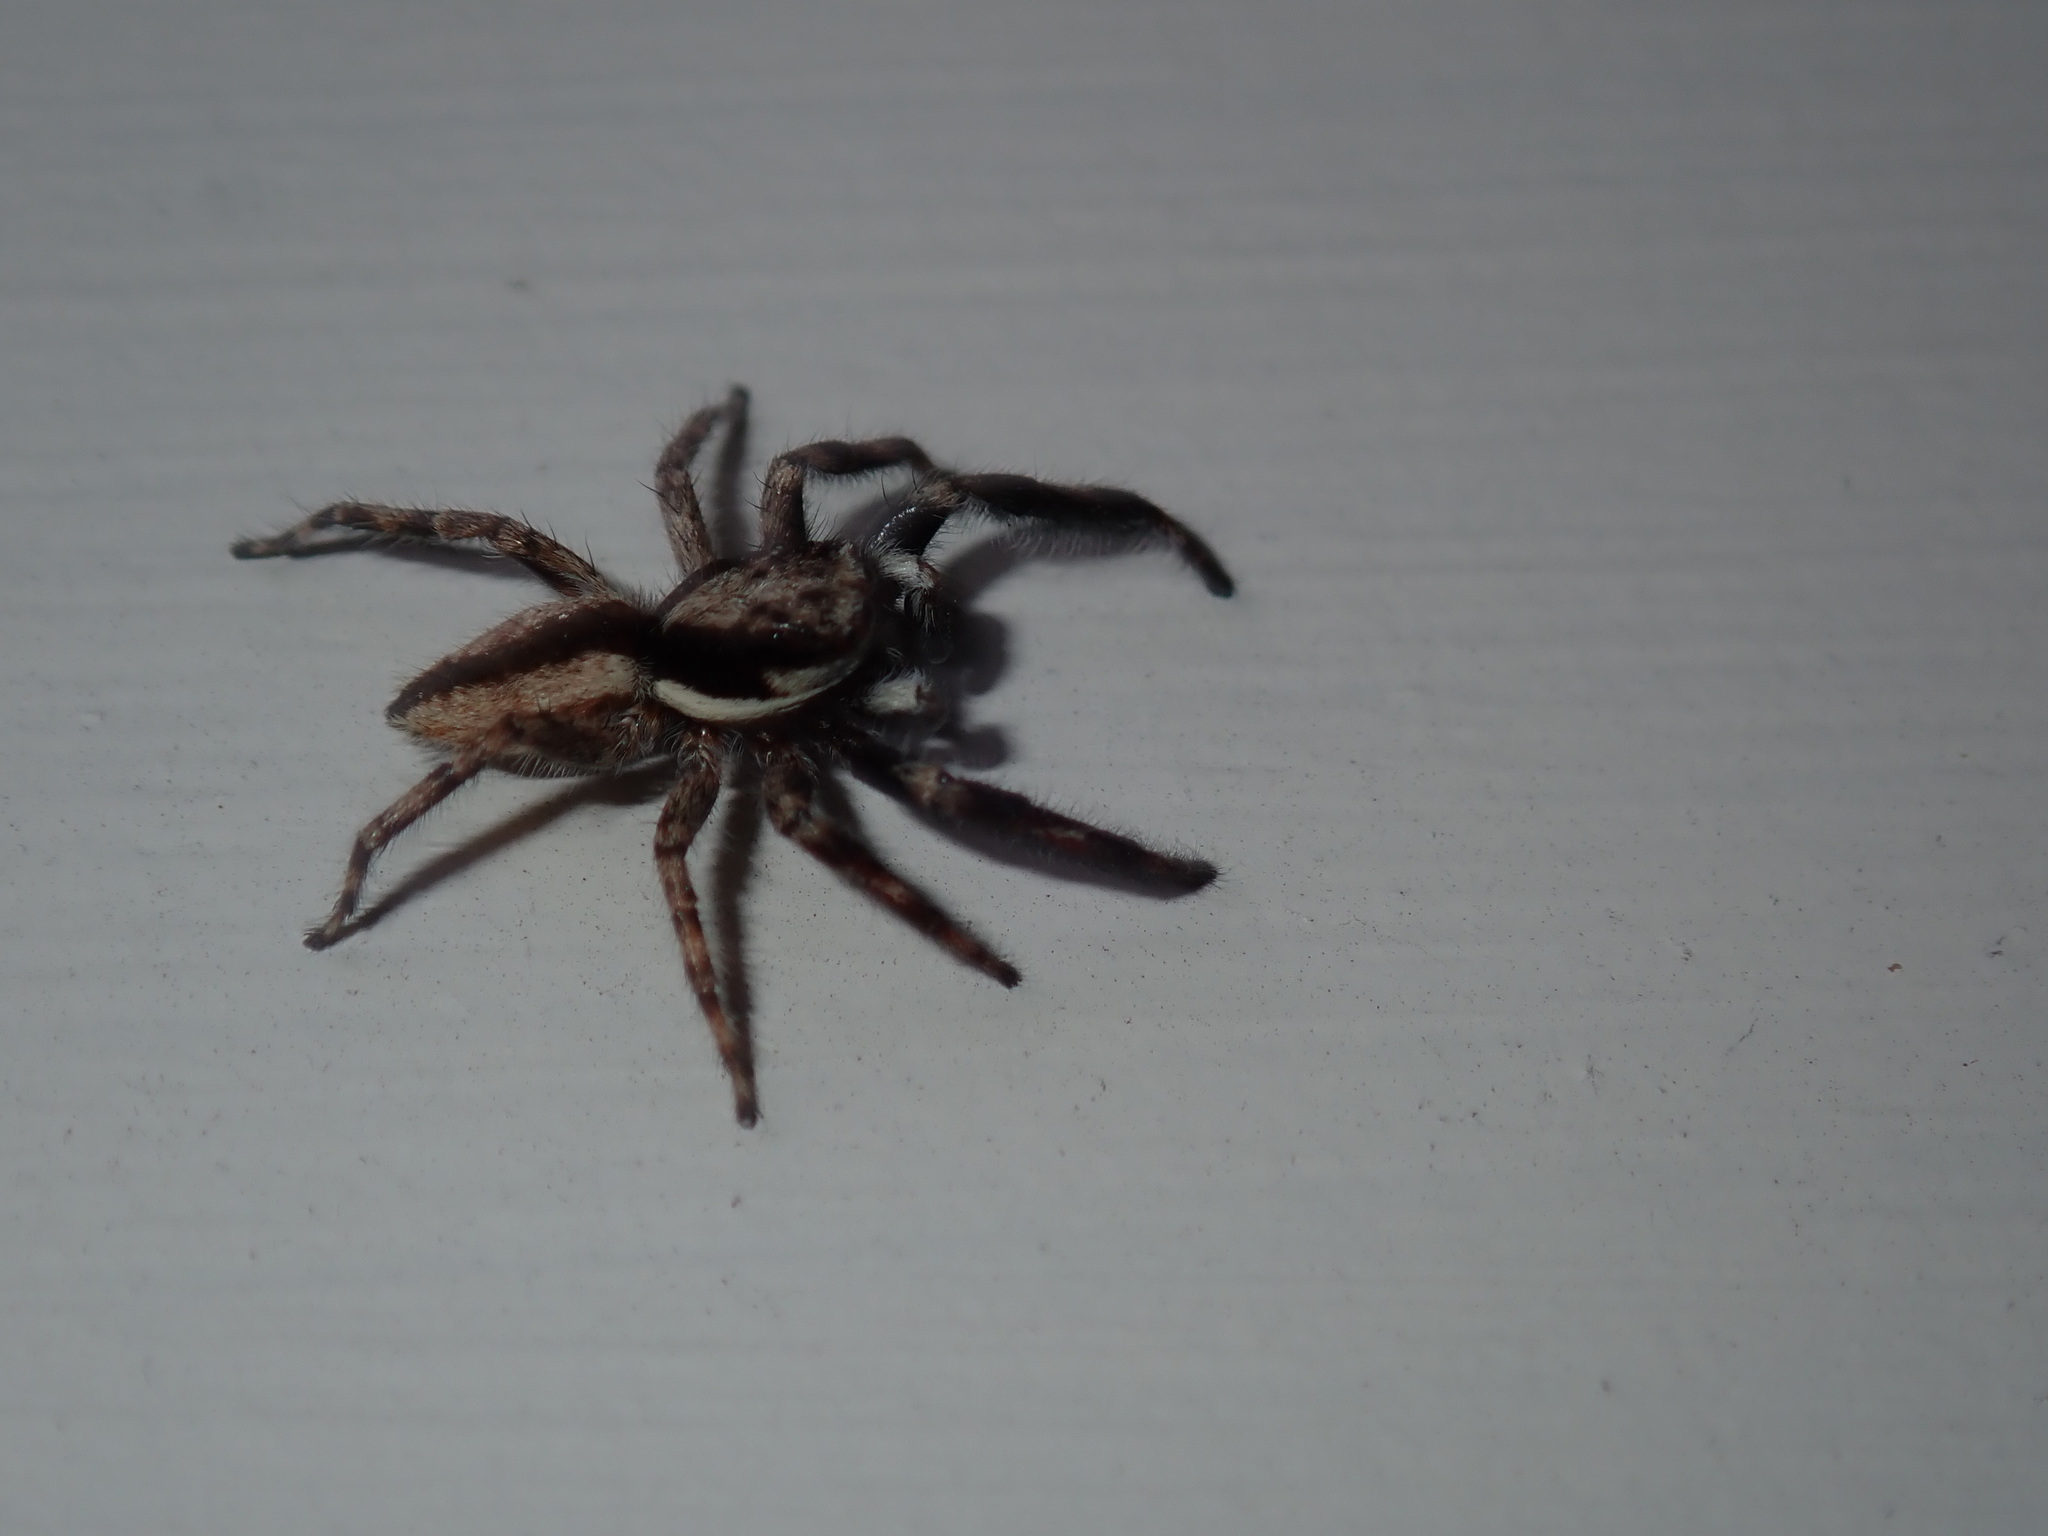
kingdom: Animalia
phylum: Arthropoda
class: Arachnida
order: Araneae
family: Salticidae
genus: Menemerus
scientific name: Menemerus bivittatus
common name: Gray wall jumper
